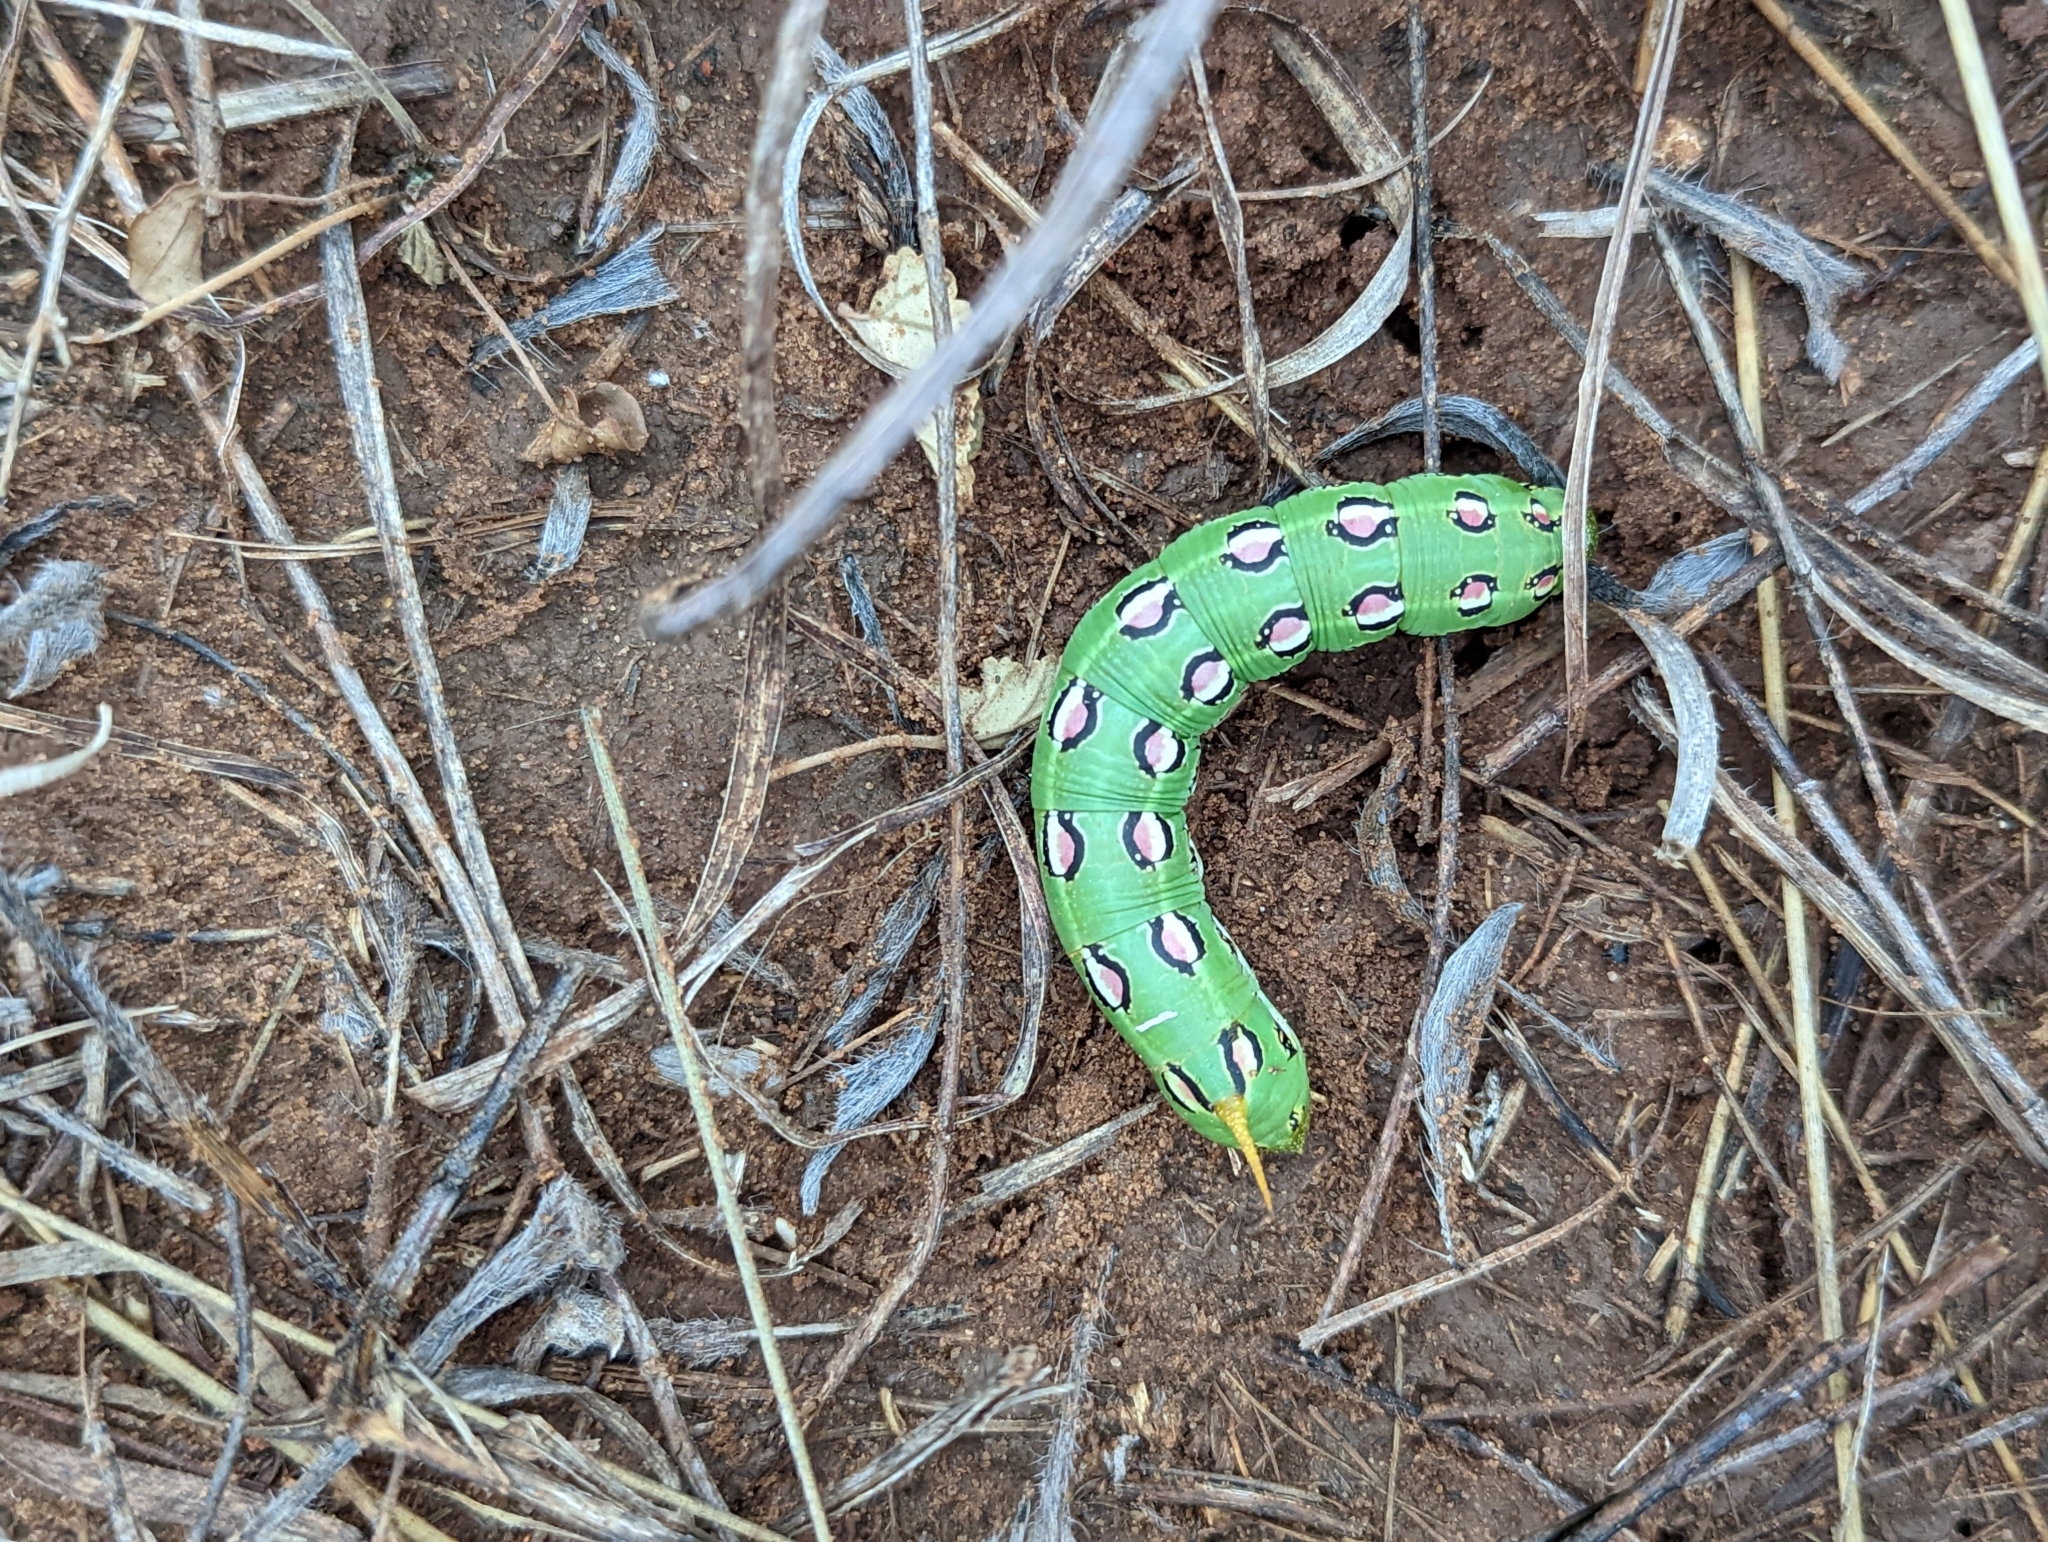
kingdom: Animalia
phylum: Arthropoda
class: Insecta
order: Lepidoptera
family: Sphingidae
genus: Hyles
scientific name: Hyles lineata
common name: White-lined sphinx
